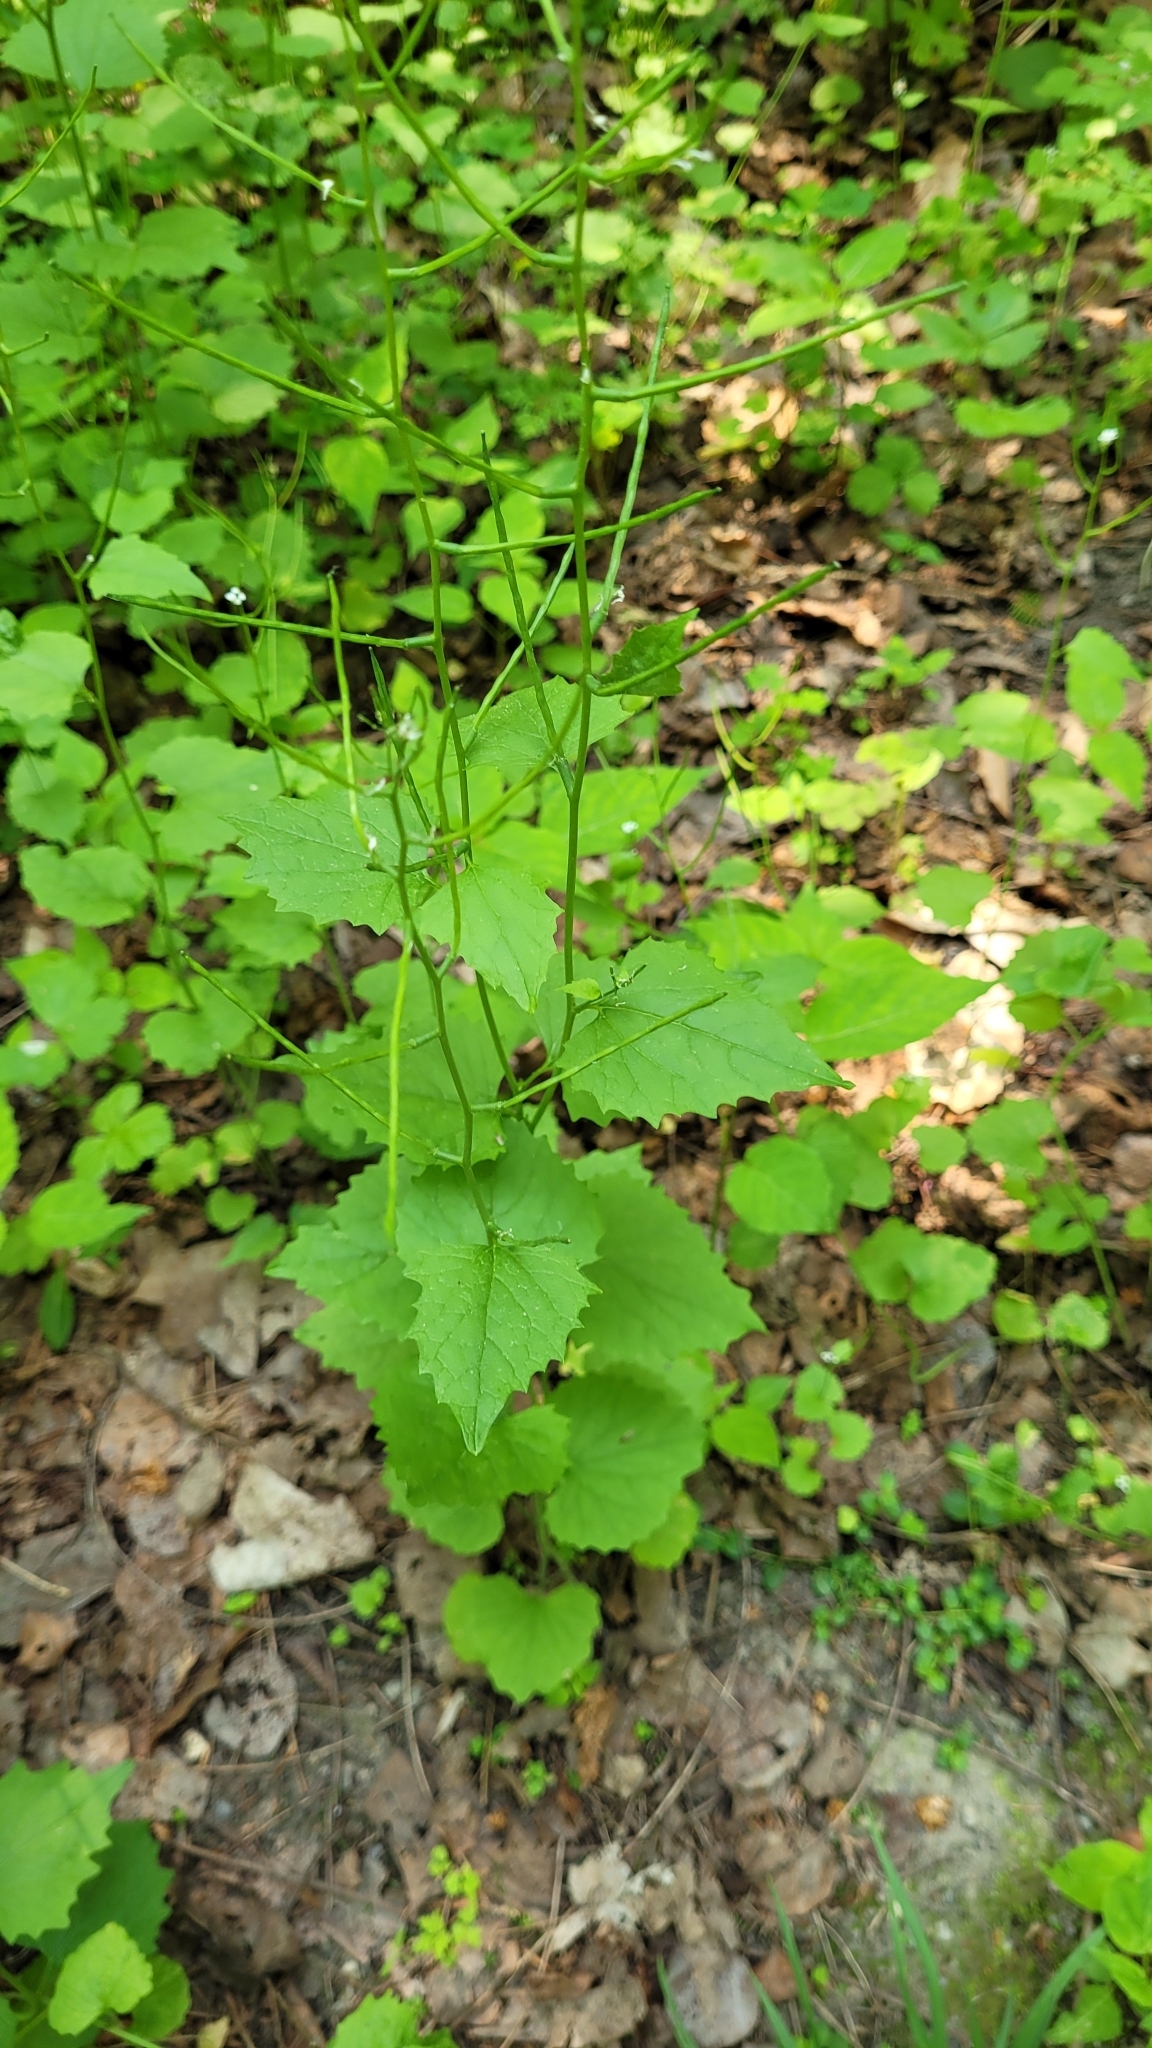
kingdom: Plantae
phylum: Tracheophyta
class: Magnoliopsida
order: Brassicales
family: Brassicaceae
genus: Alliaria
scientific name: Alliaria petiolata
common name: Garlic mustard
